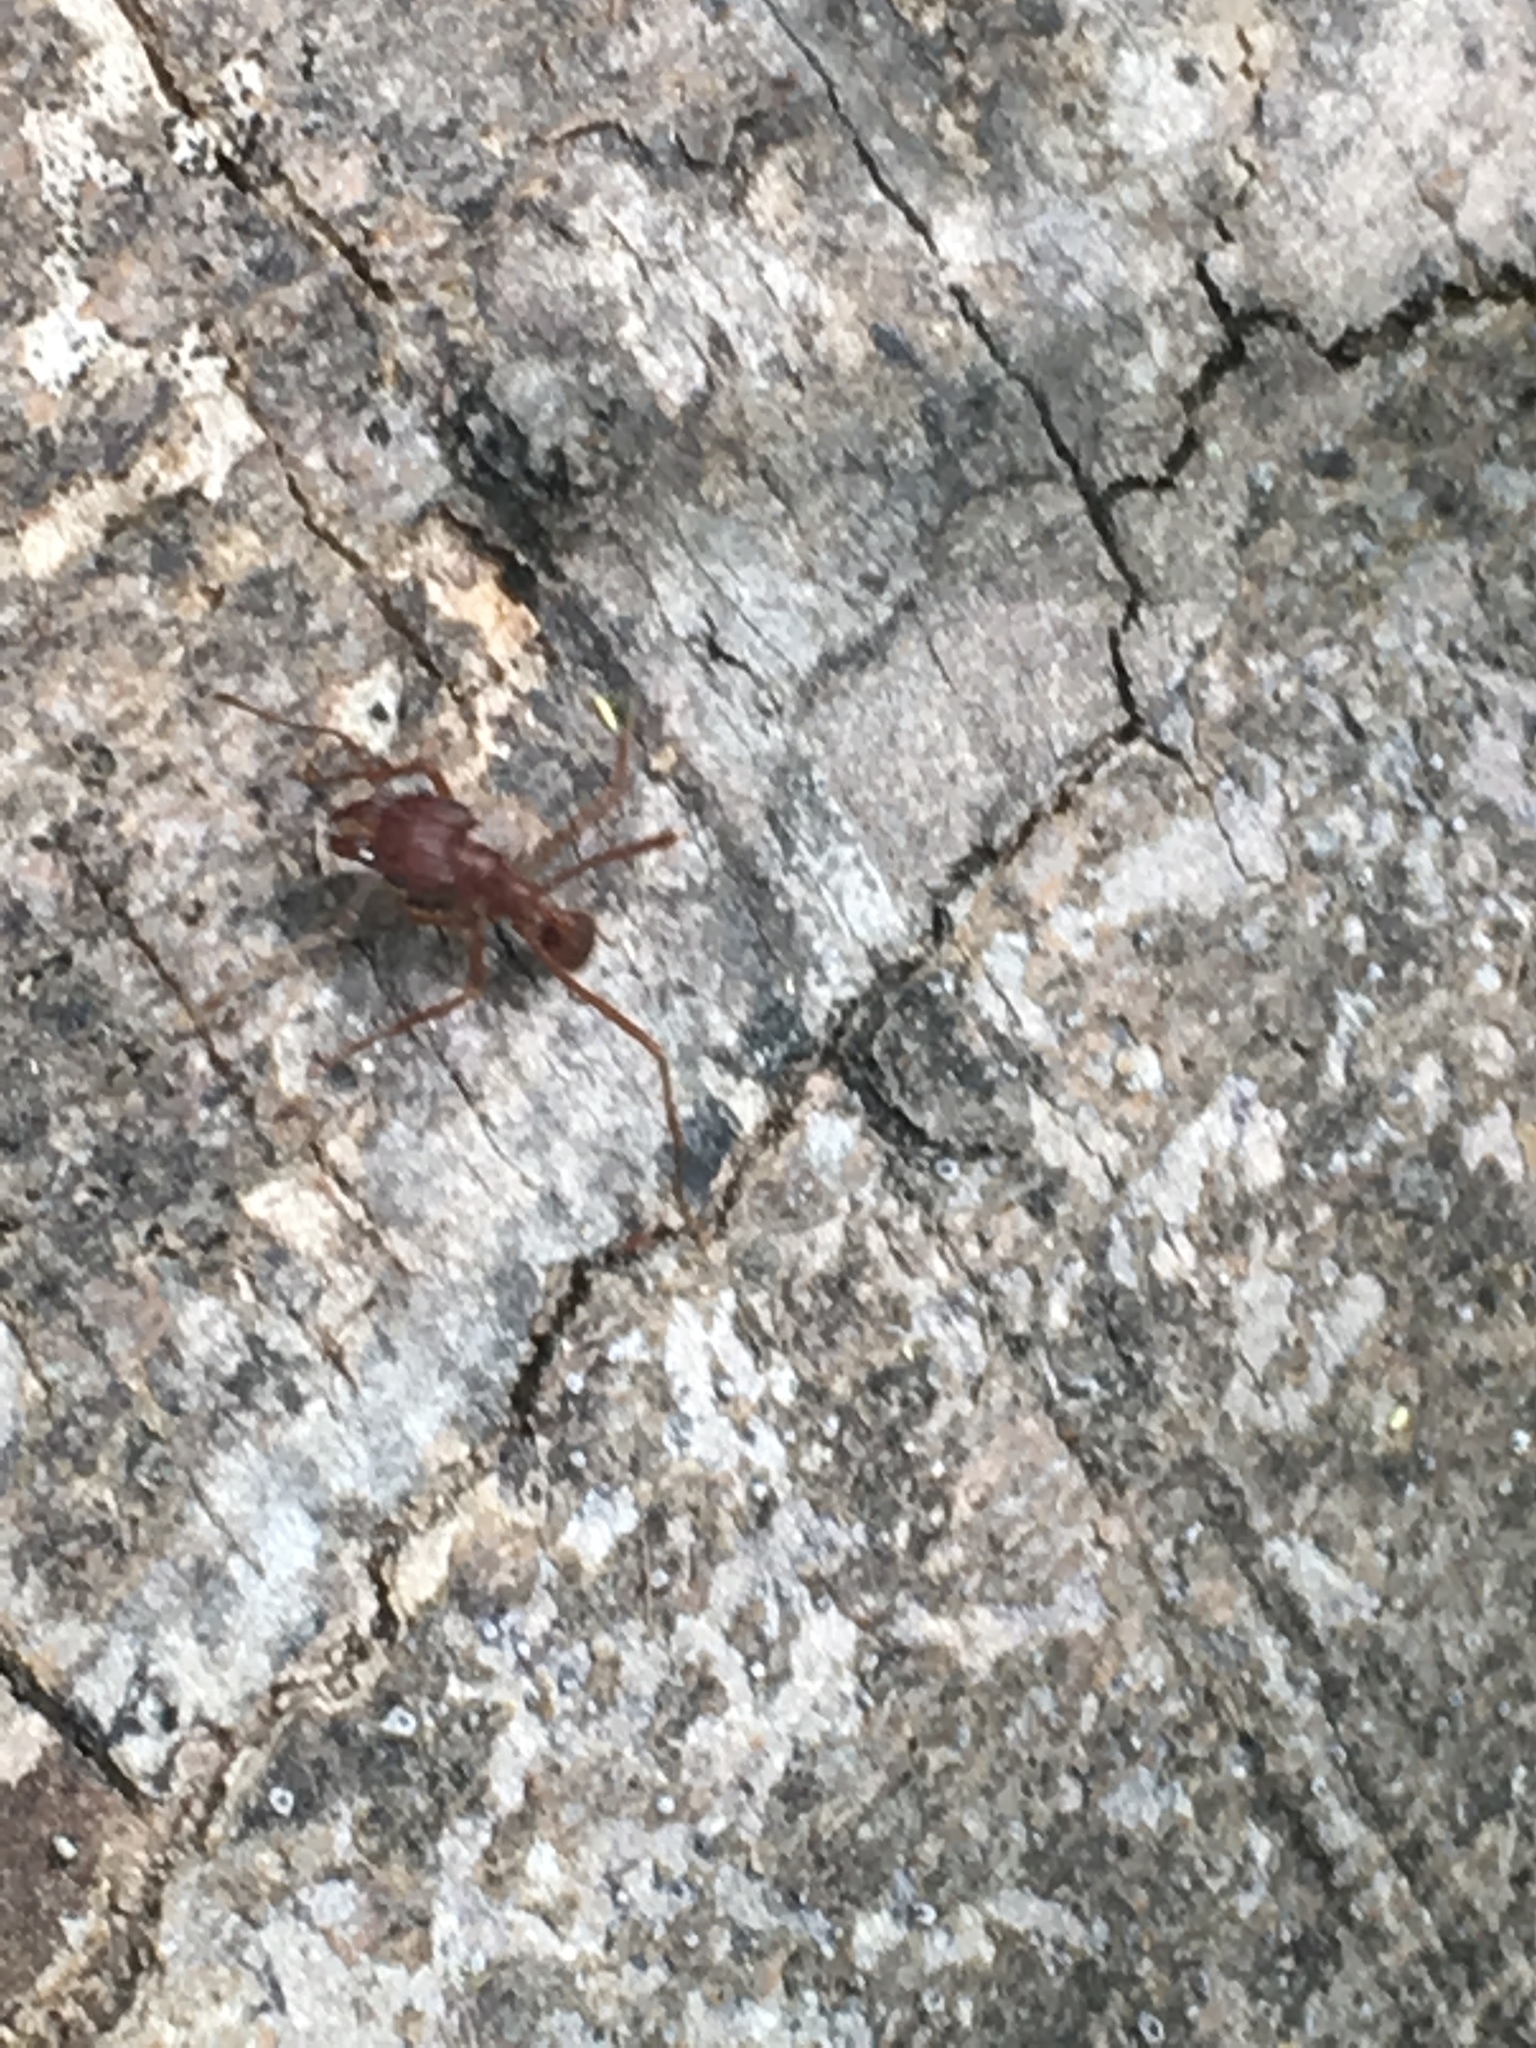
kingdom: Animalia
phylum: Arthropoda
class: Insecta
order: Hymenoptera
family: Formicidae
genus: Atta
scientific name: Atta texana
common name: Texas leafcutting ant
